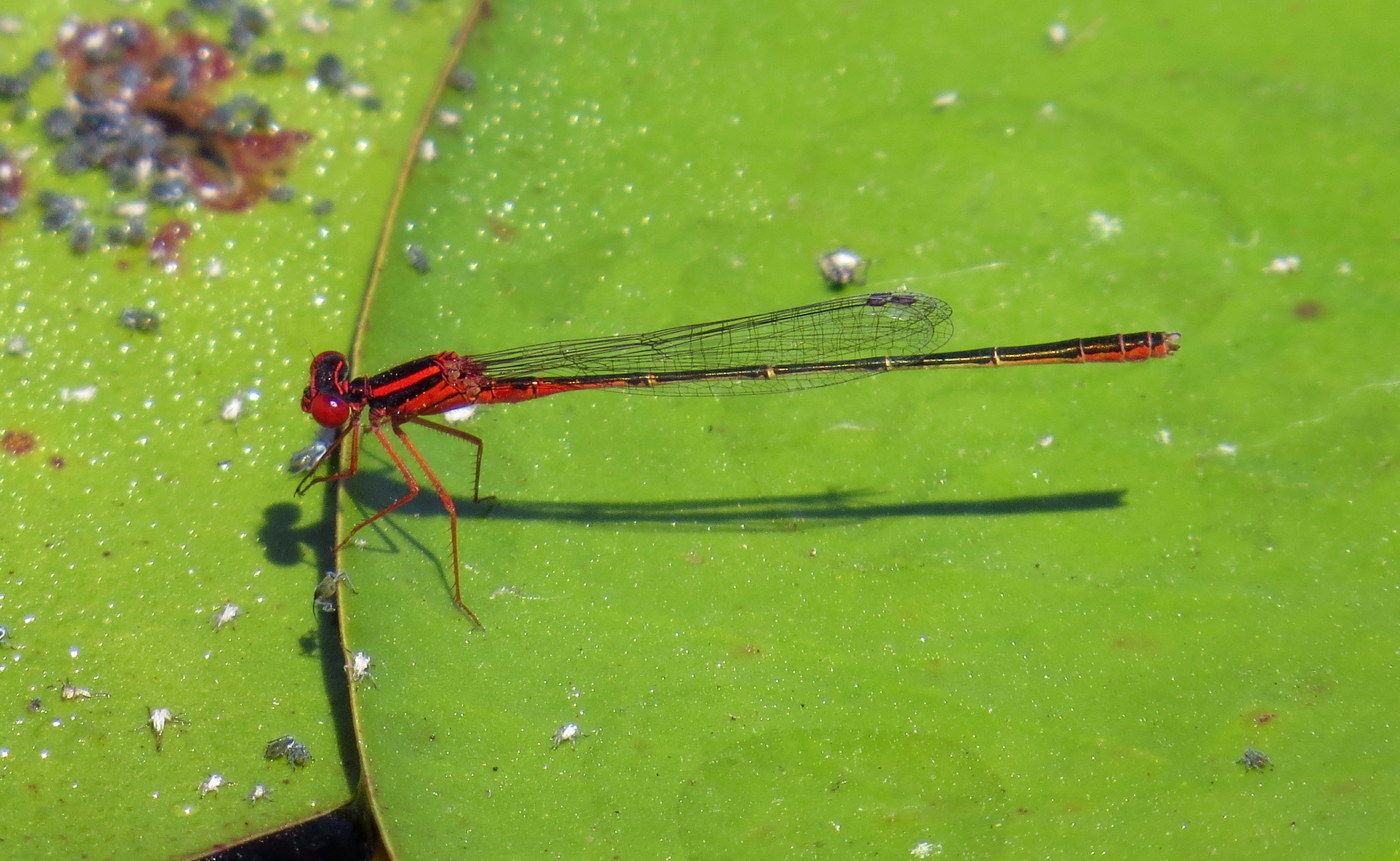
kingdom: Animalia
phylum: Arthropoda
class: Insecta
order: Odonata
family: Coenagrionidae
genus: Enallagma
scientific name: Enallagma pictum
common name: Scarlet bluet
